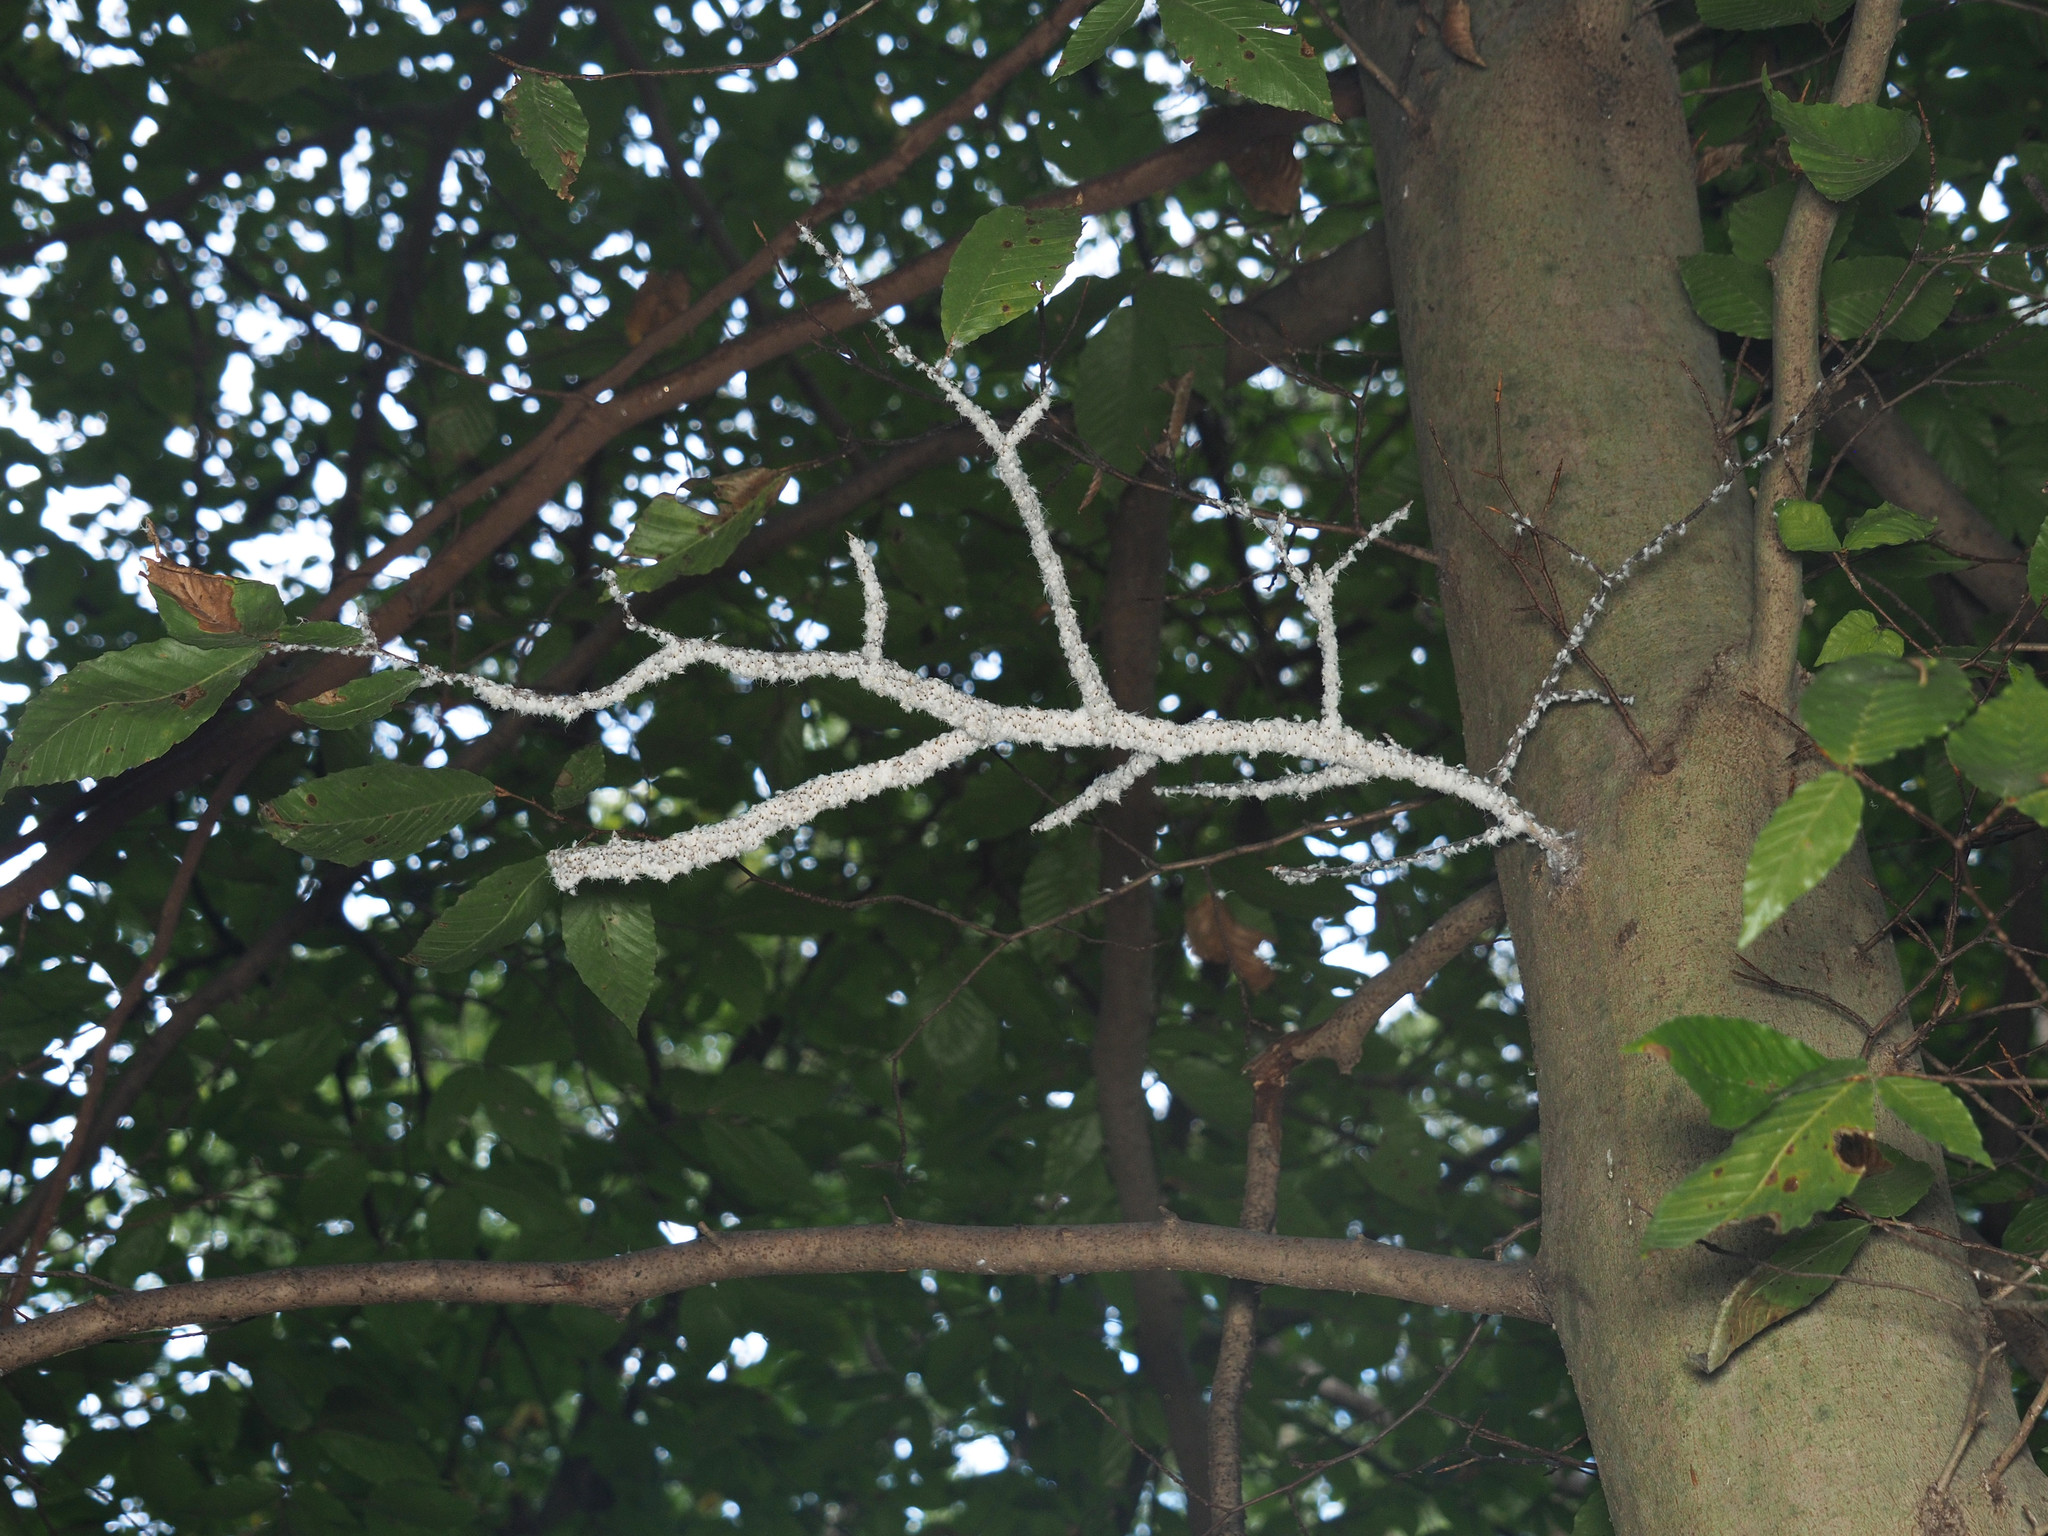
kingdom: Animalia
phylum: Arthropoda
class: Insecta
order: Hemiptera
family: Aphididae
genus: Grylloprociphilus
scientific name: Grylloprociphilus imbricator
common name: Beech blight aphid
